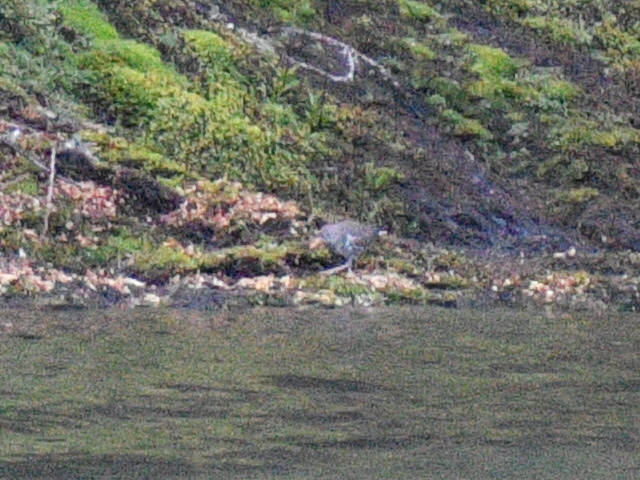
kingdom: Animalia
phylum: Chordata
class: Aves
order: Charadriiformes
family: Scolopacidae
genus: Actitis
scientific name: Actitis macularius
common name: Spotted sandpiper
